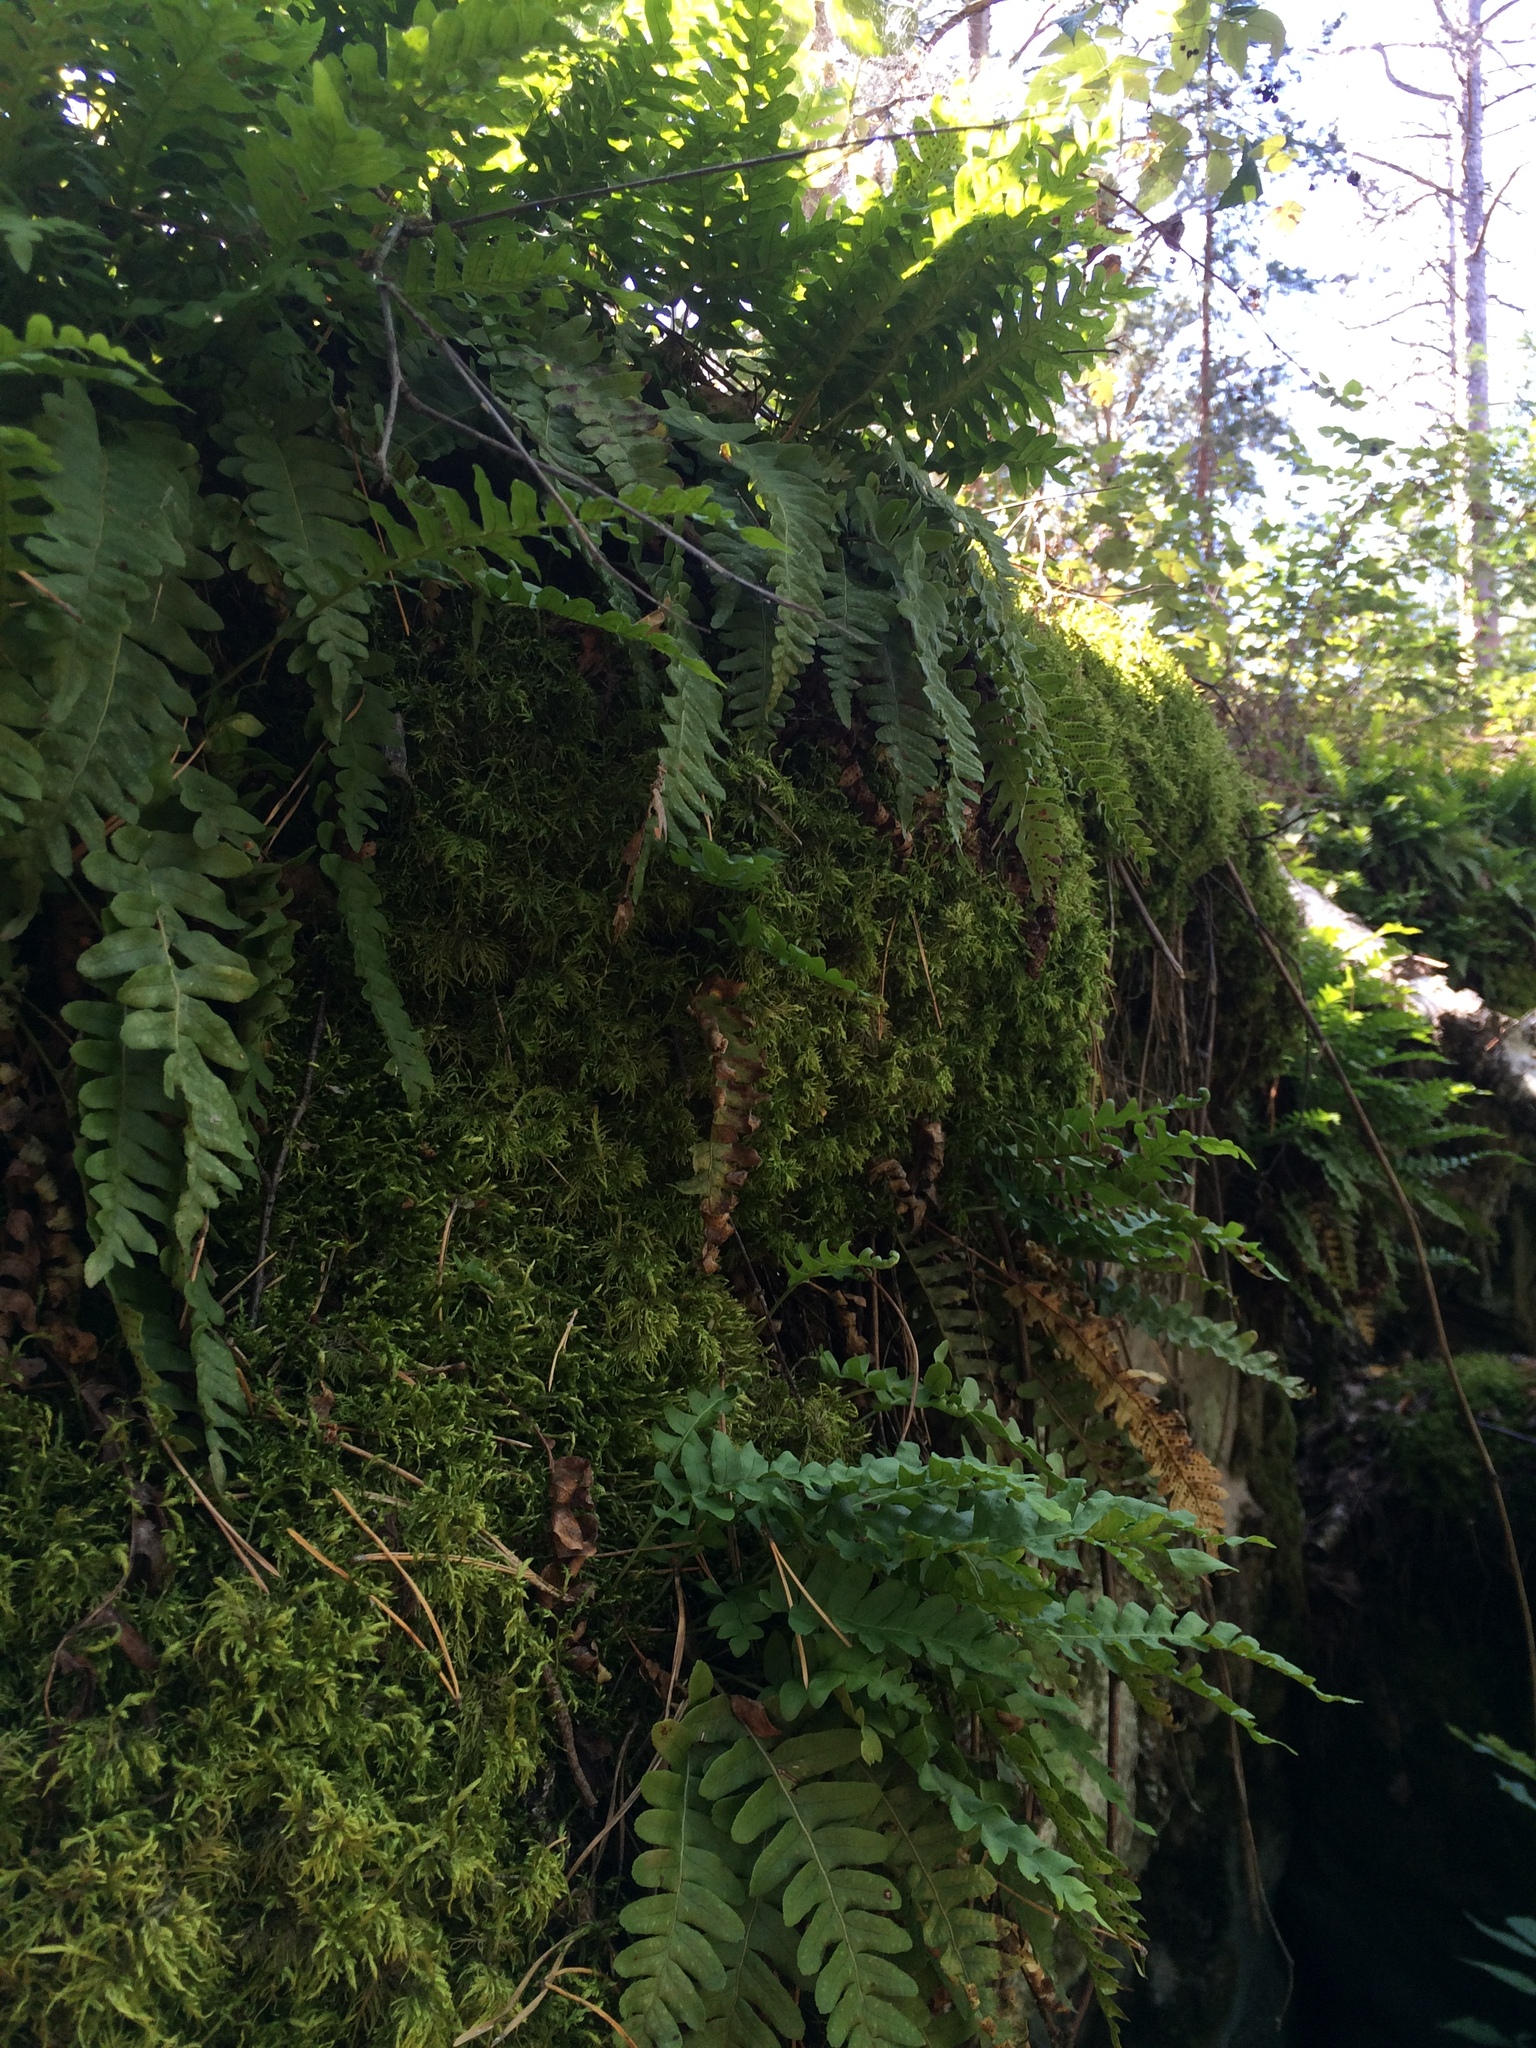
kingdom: Plantae
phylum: Tracheophyta
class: Polypodiopsida
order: Polypodiales
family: Polypodiaceae
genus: Polypodium
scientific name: Polypodium vulgare
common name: Common polypody
